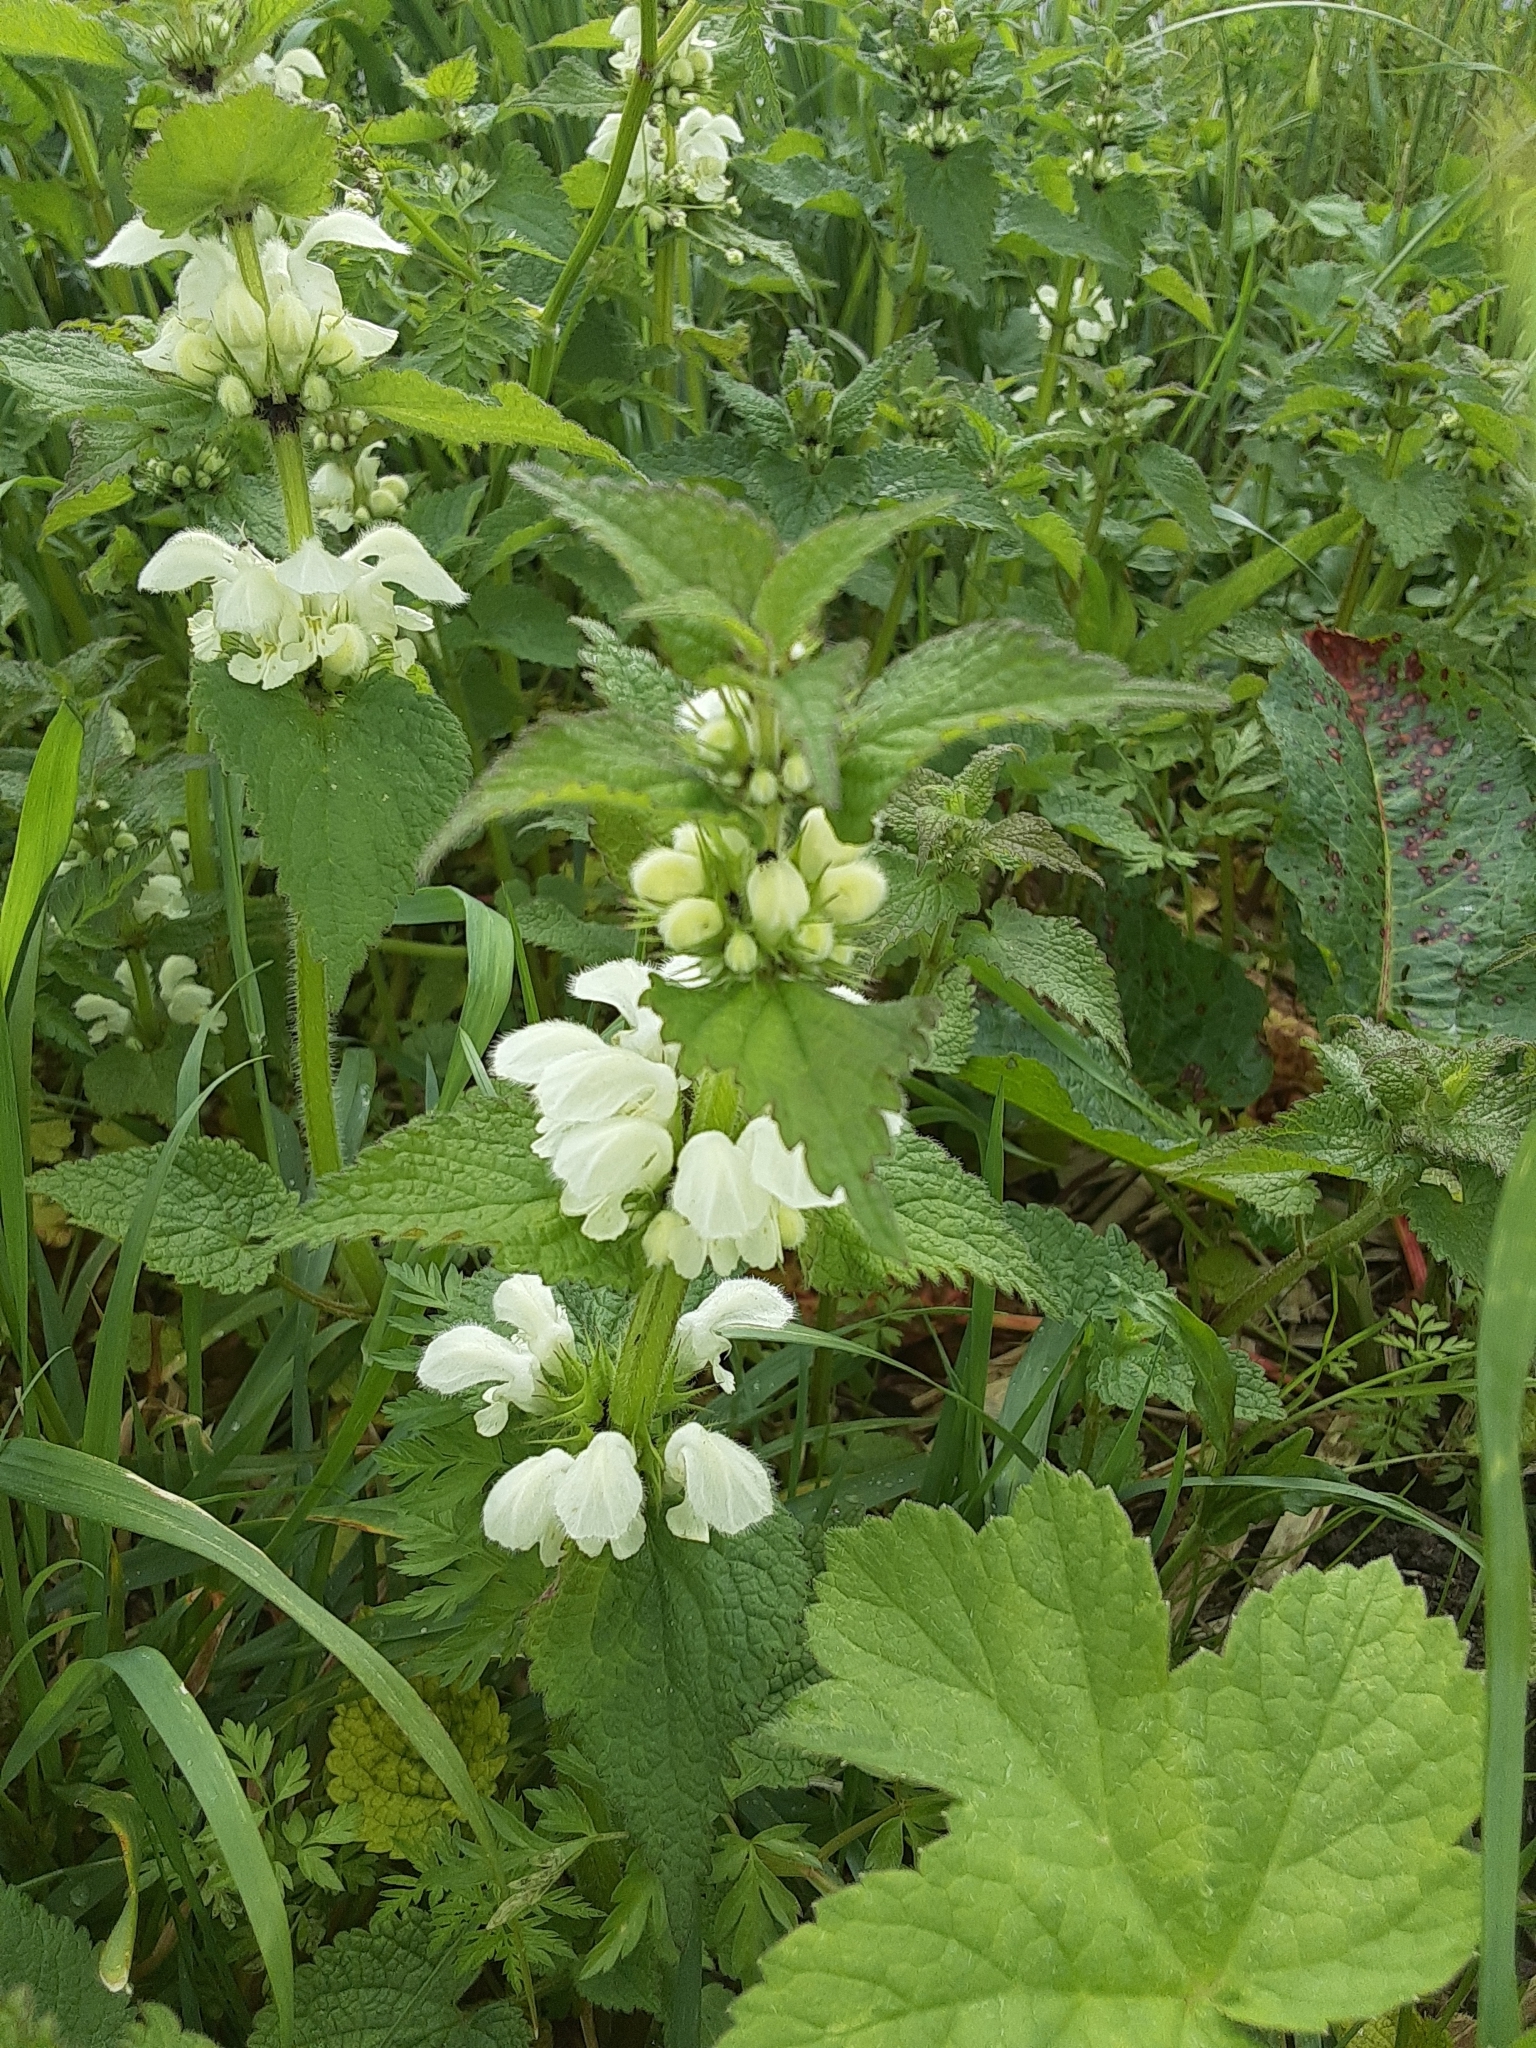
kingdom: Plantae
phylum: Tracheophyta
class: Magnoliopsida
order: Lamiales
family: Lamiaceae
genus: Lamium
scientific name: Lamium album
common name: White dead-nettle
